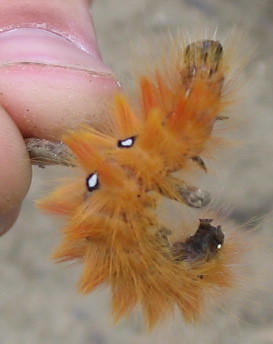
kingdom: Animalia
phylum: Arthropoda
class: Insecta
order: Lepidoptera
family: Noctuidae
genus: Acronicta
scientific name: Acronicta aceris
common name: Sycamore
